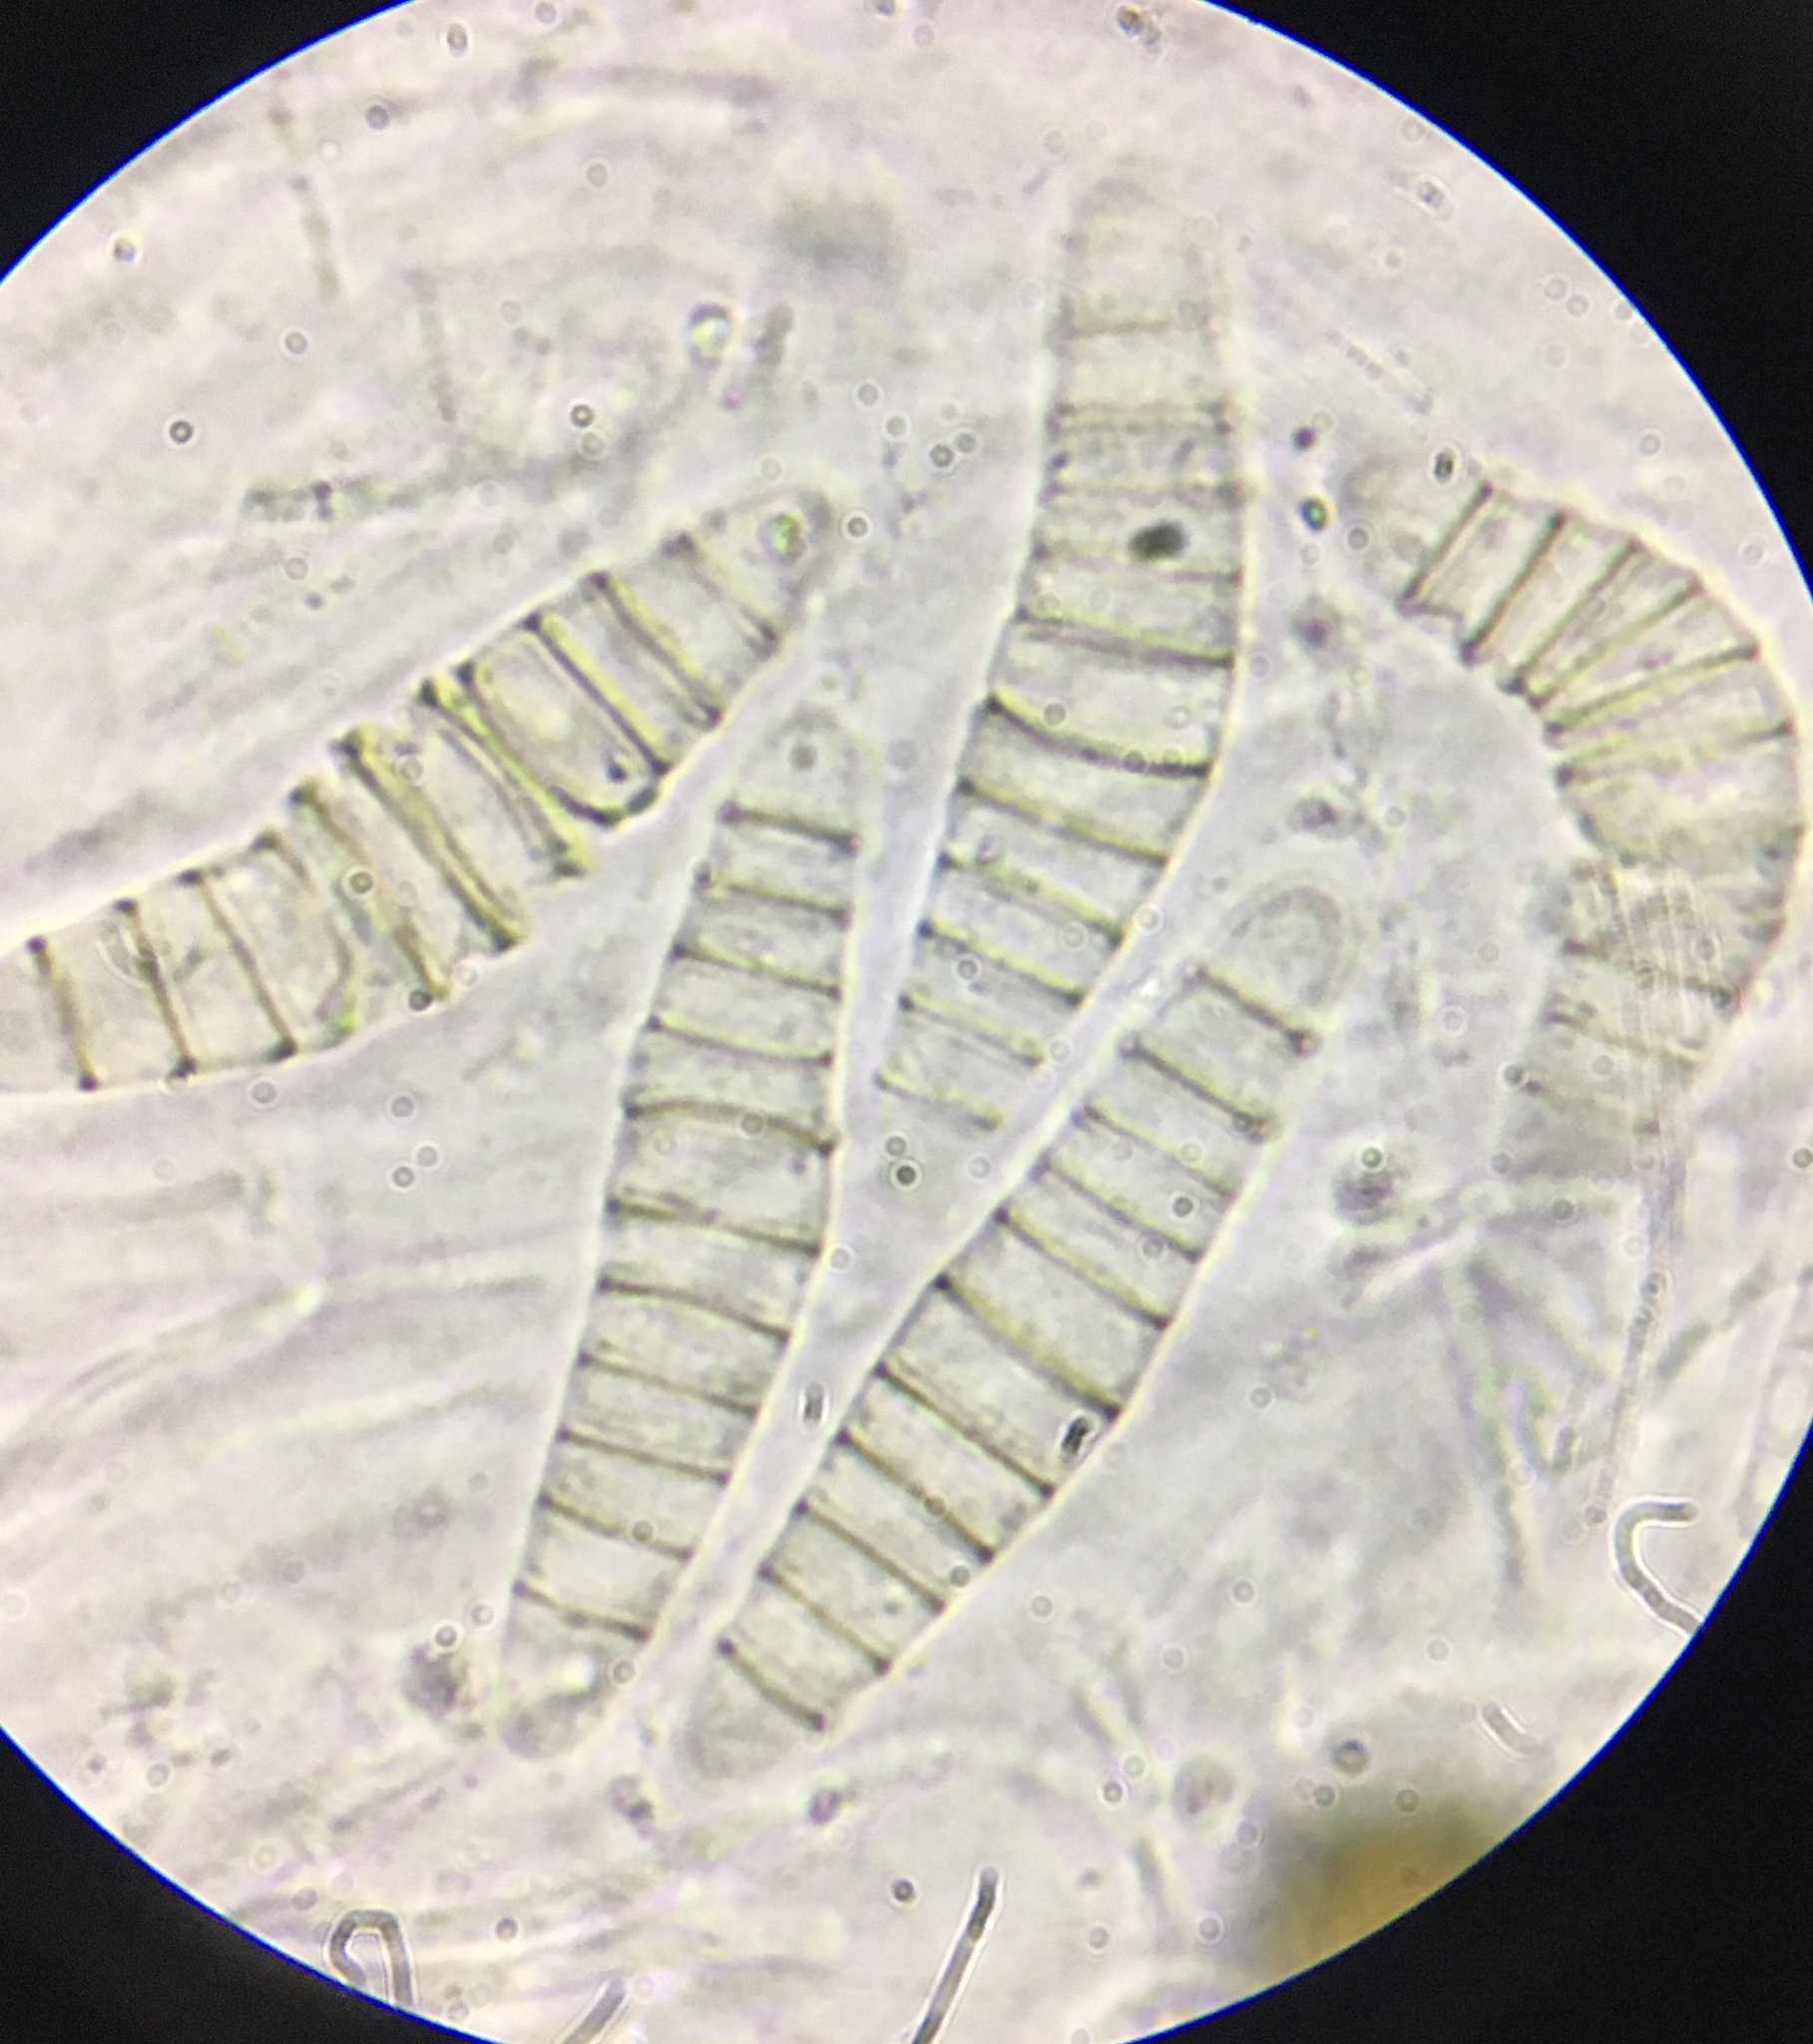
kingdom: Fungi
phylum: Ascomycota
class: Dothideomycetes
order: Pleosporales
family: Sporormiaceae
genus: Preussia
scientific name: Preussia calomera
